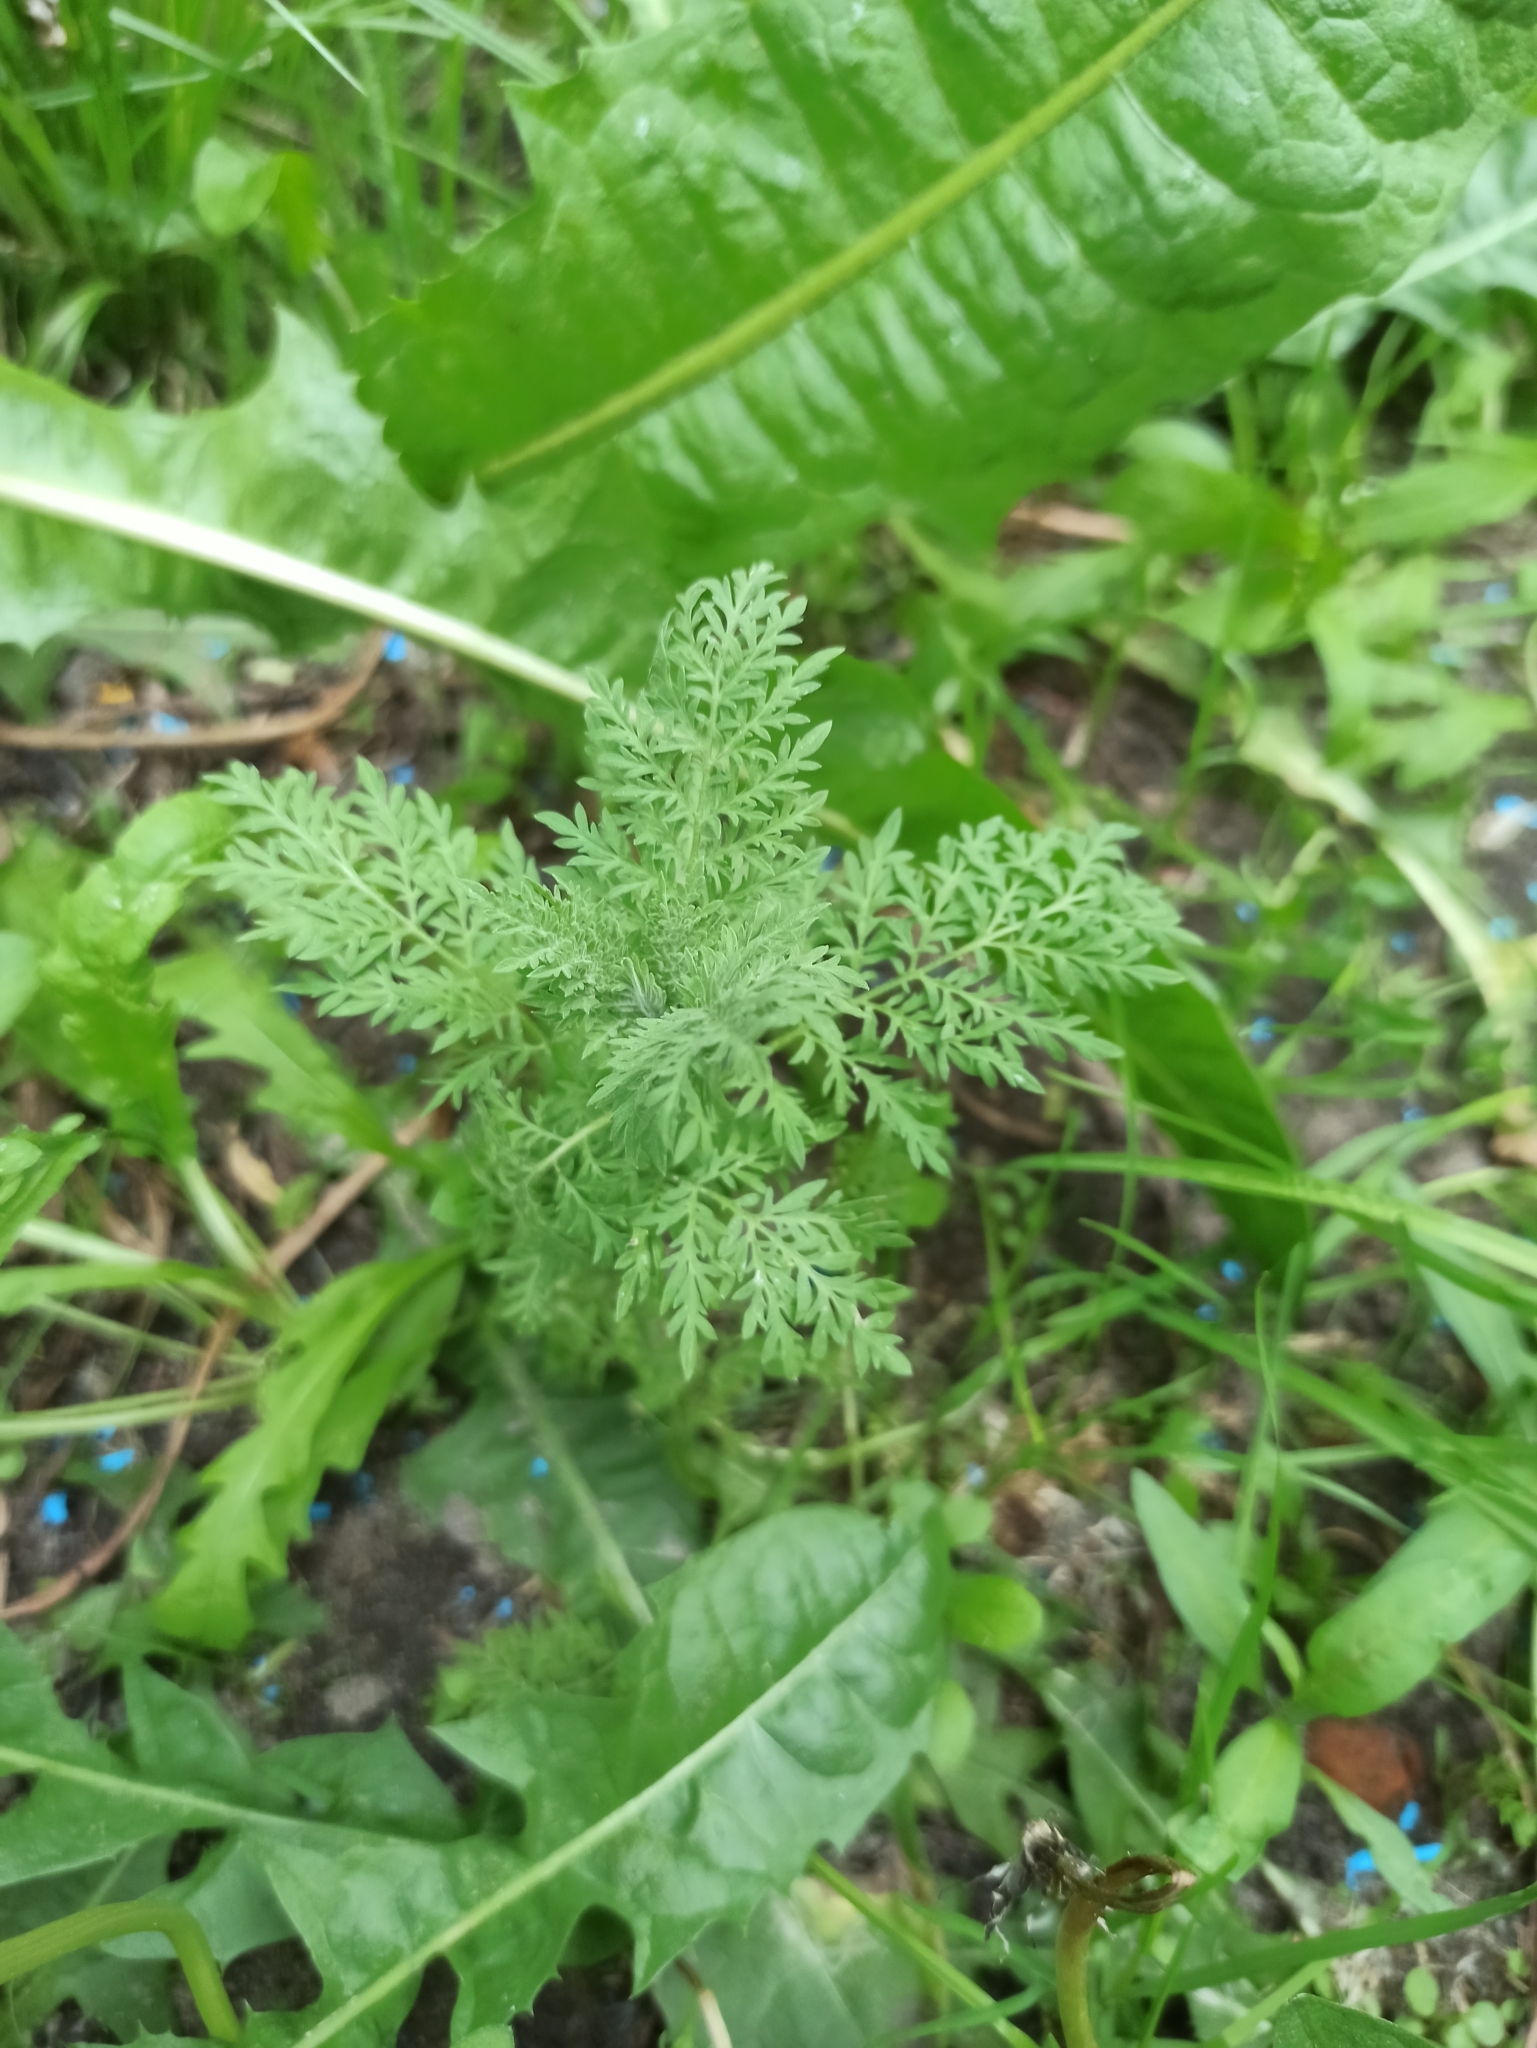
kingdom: Plantae
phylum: Tracheophyta
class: Magnoliopsida
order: Brassicales
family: Brassicaceae
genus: Descurainia
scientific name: Descurainia sophia
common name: Flixweed
